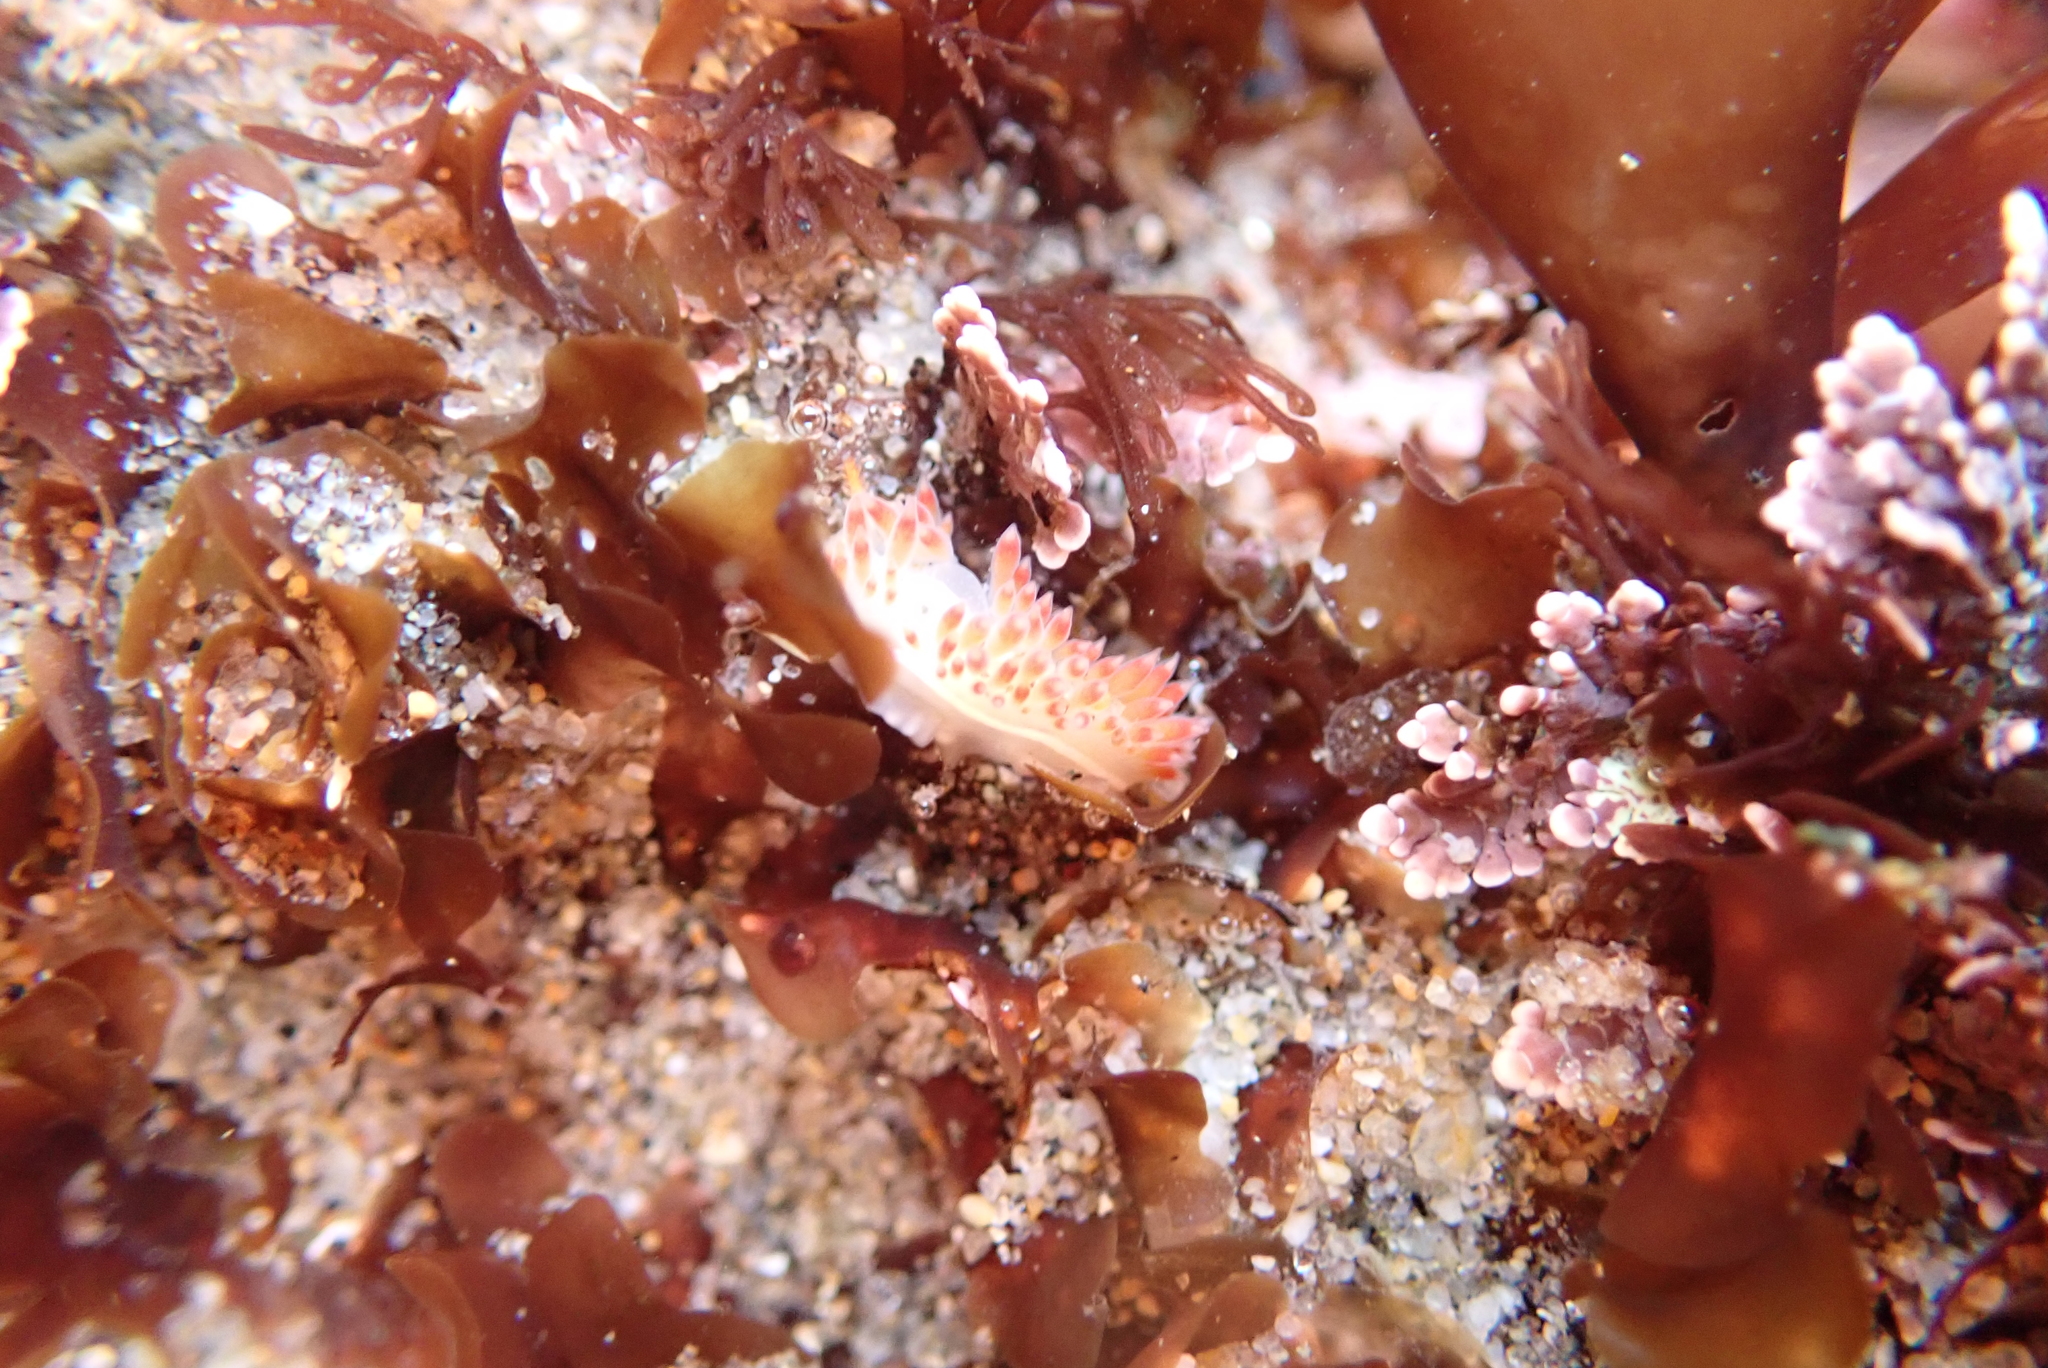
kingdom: Animalia
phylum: Mollusca
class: Gastropoda
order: Nudibranchia
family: Coryphellidae
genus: Coryphella
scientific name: Coryphella trilineata
